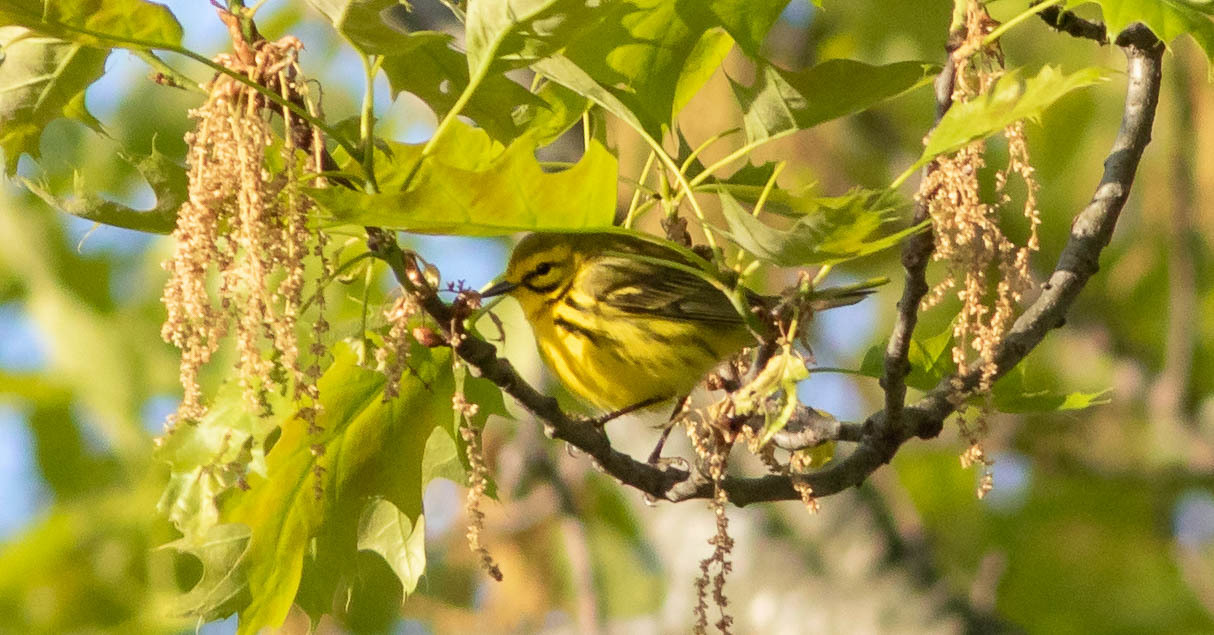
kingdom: Animalia
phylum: Chordata
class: Aves
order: Passeriformes
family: Parulidae
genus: Setophaga
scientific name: Setophaga discolor
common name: Prairie warbler
